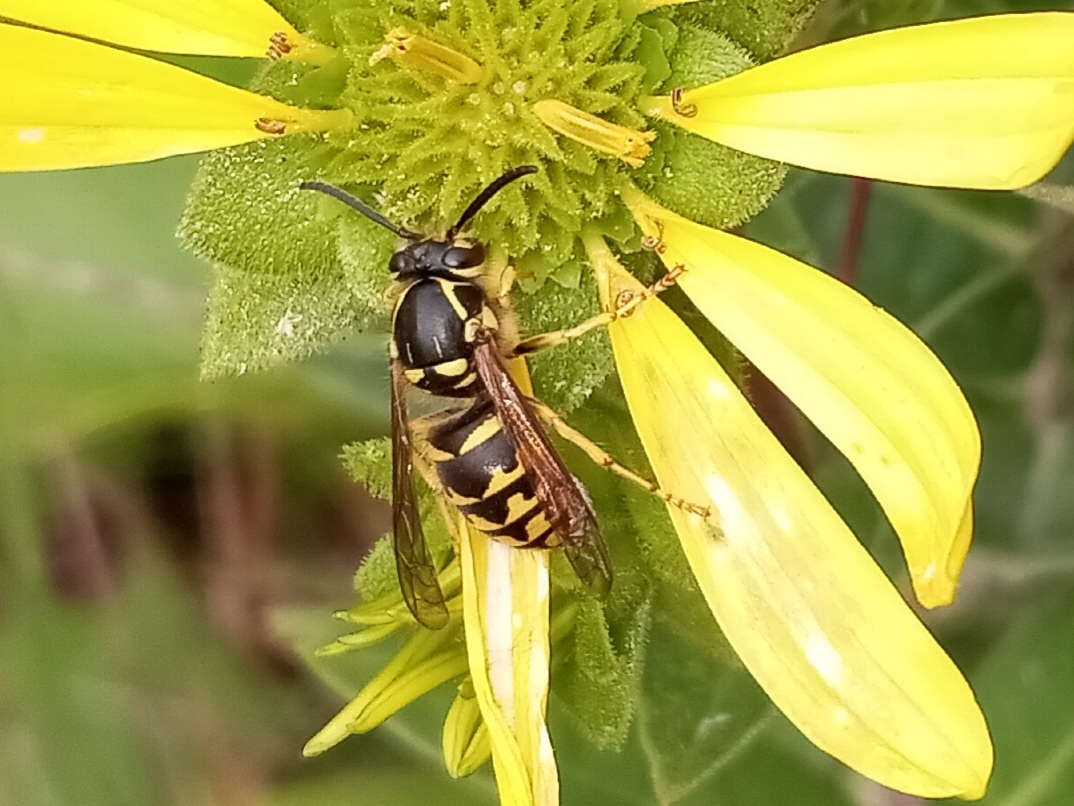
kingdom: Animalia
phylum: Arthropoda
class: Insecta
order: Hymenoptera
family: Vespidae
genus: Dolichovespula
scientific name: Dolichovespula arenaria
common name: Aerial yellowjacket
